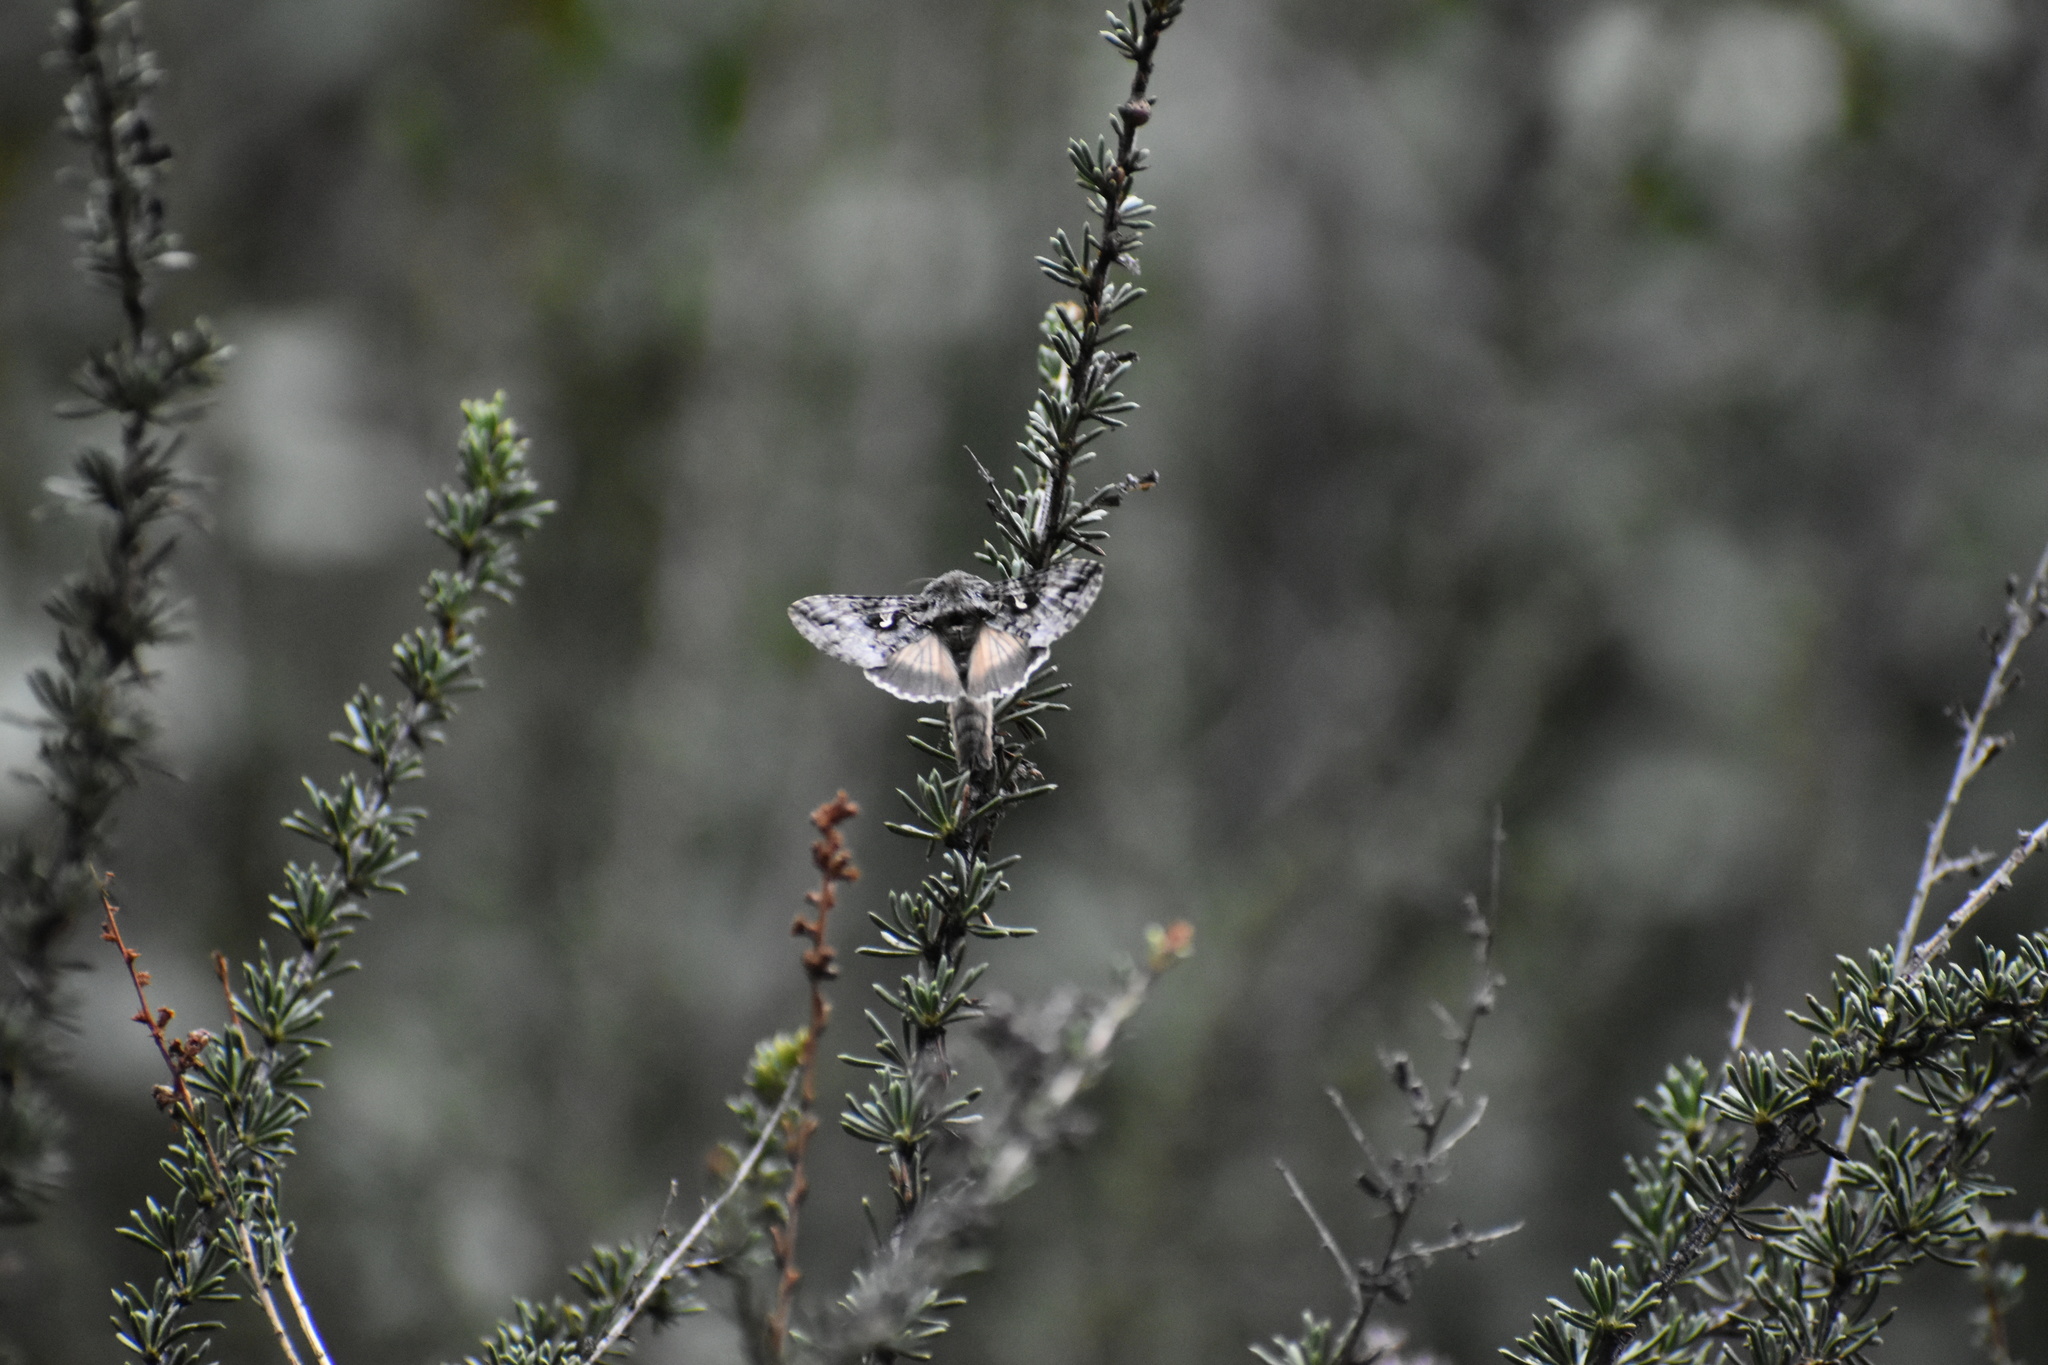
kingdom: Animalia
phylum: Arthropoda
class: Insecta
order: Lepidoptera
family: Noctuidae
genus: Autographa
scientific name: Autographa californica
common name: Alfalfa looper
